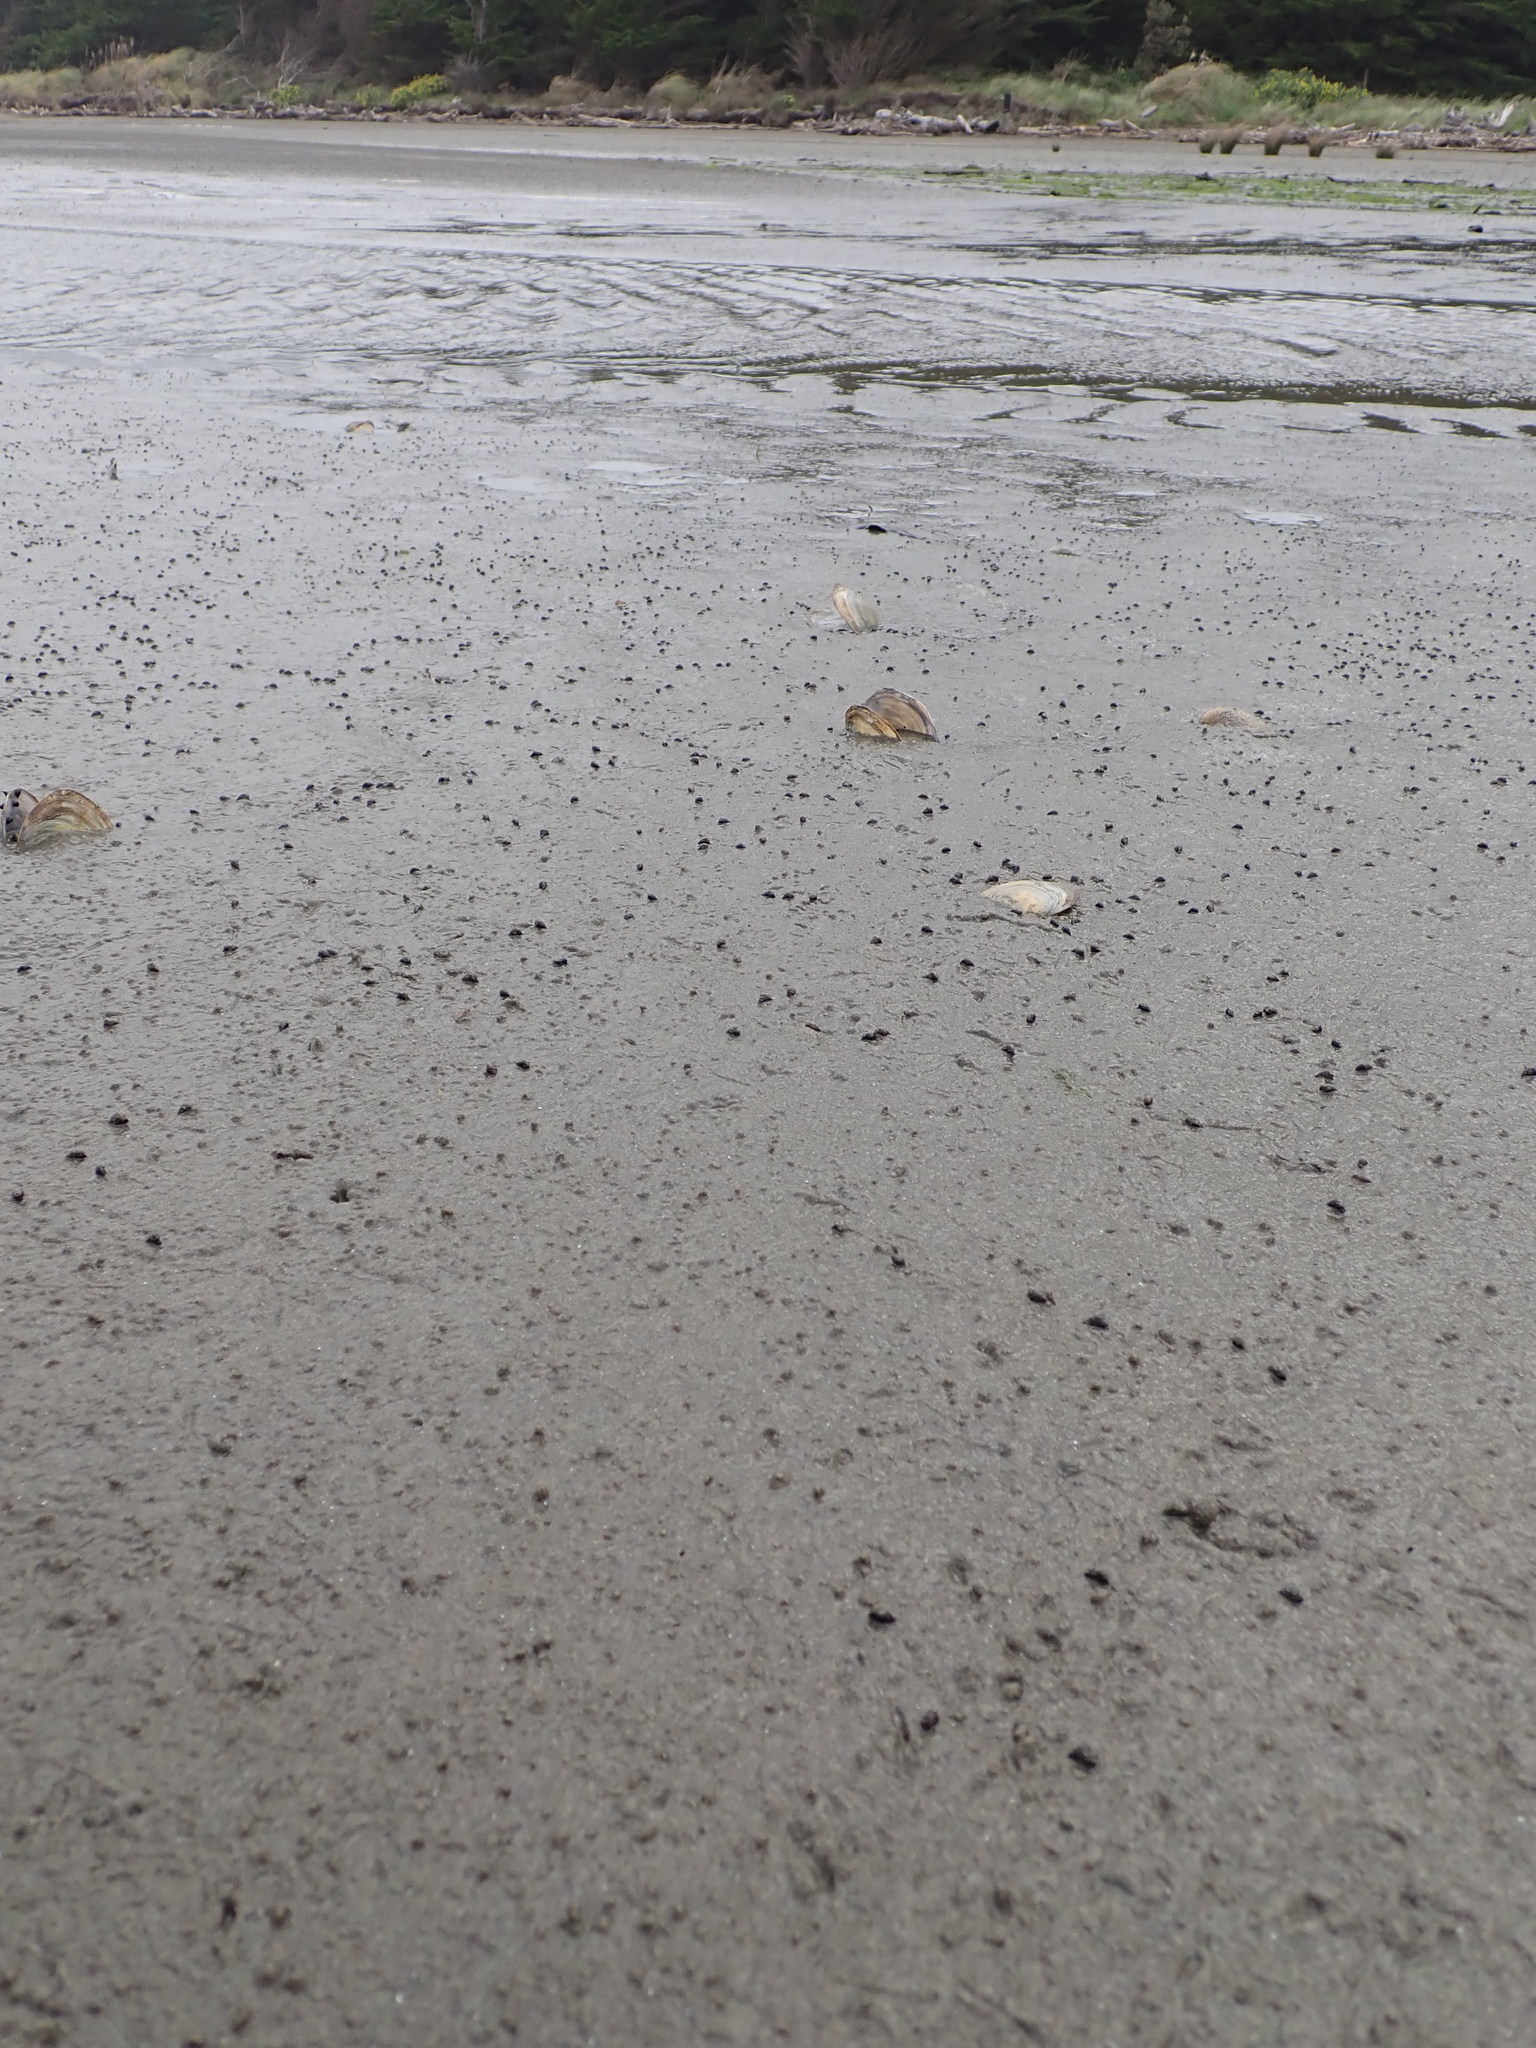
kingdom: Animalia
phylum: Mollusca
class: Bivalvia
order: Venerida
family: Mactridae
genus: Cyclomactra
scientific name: Cyclomactra ovata
